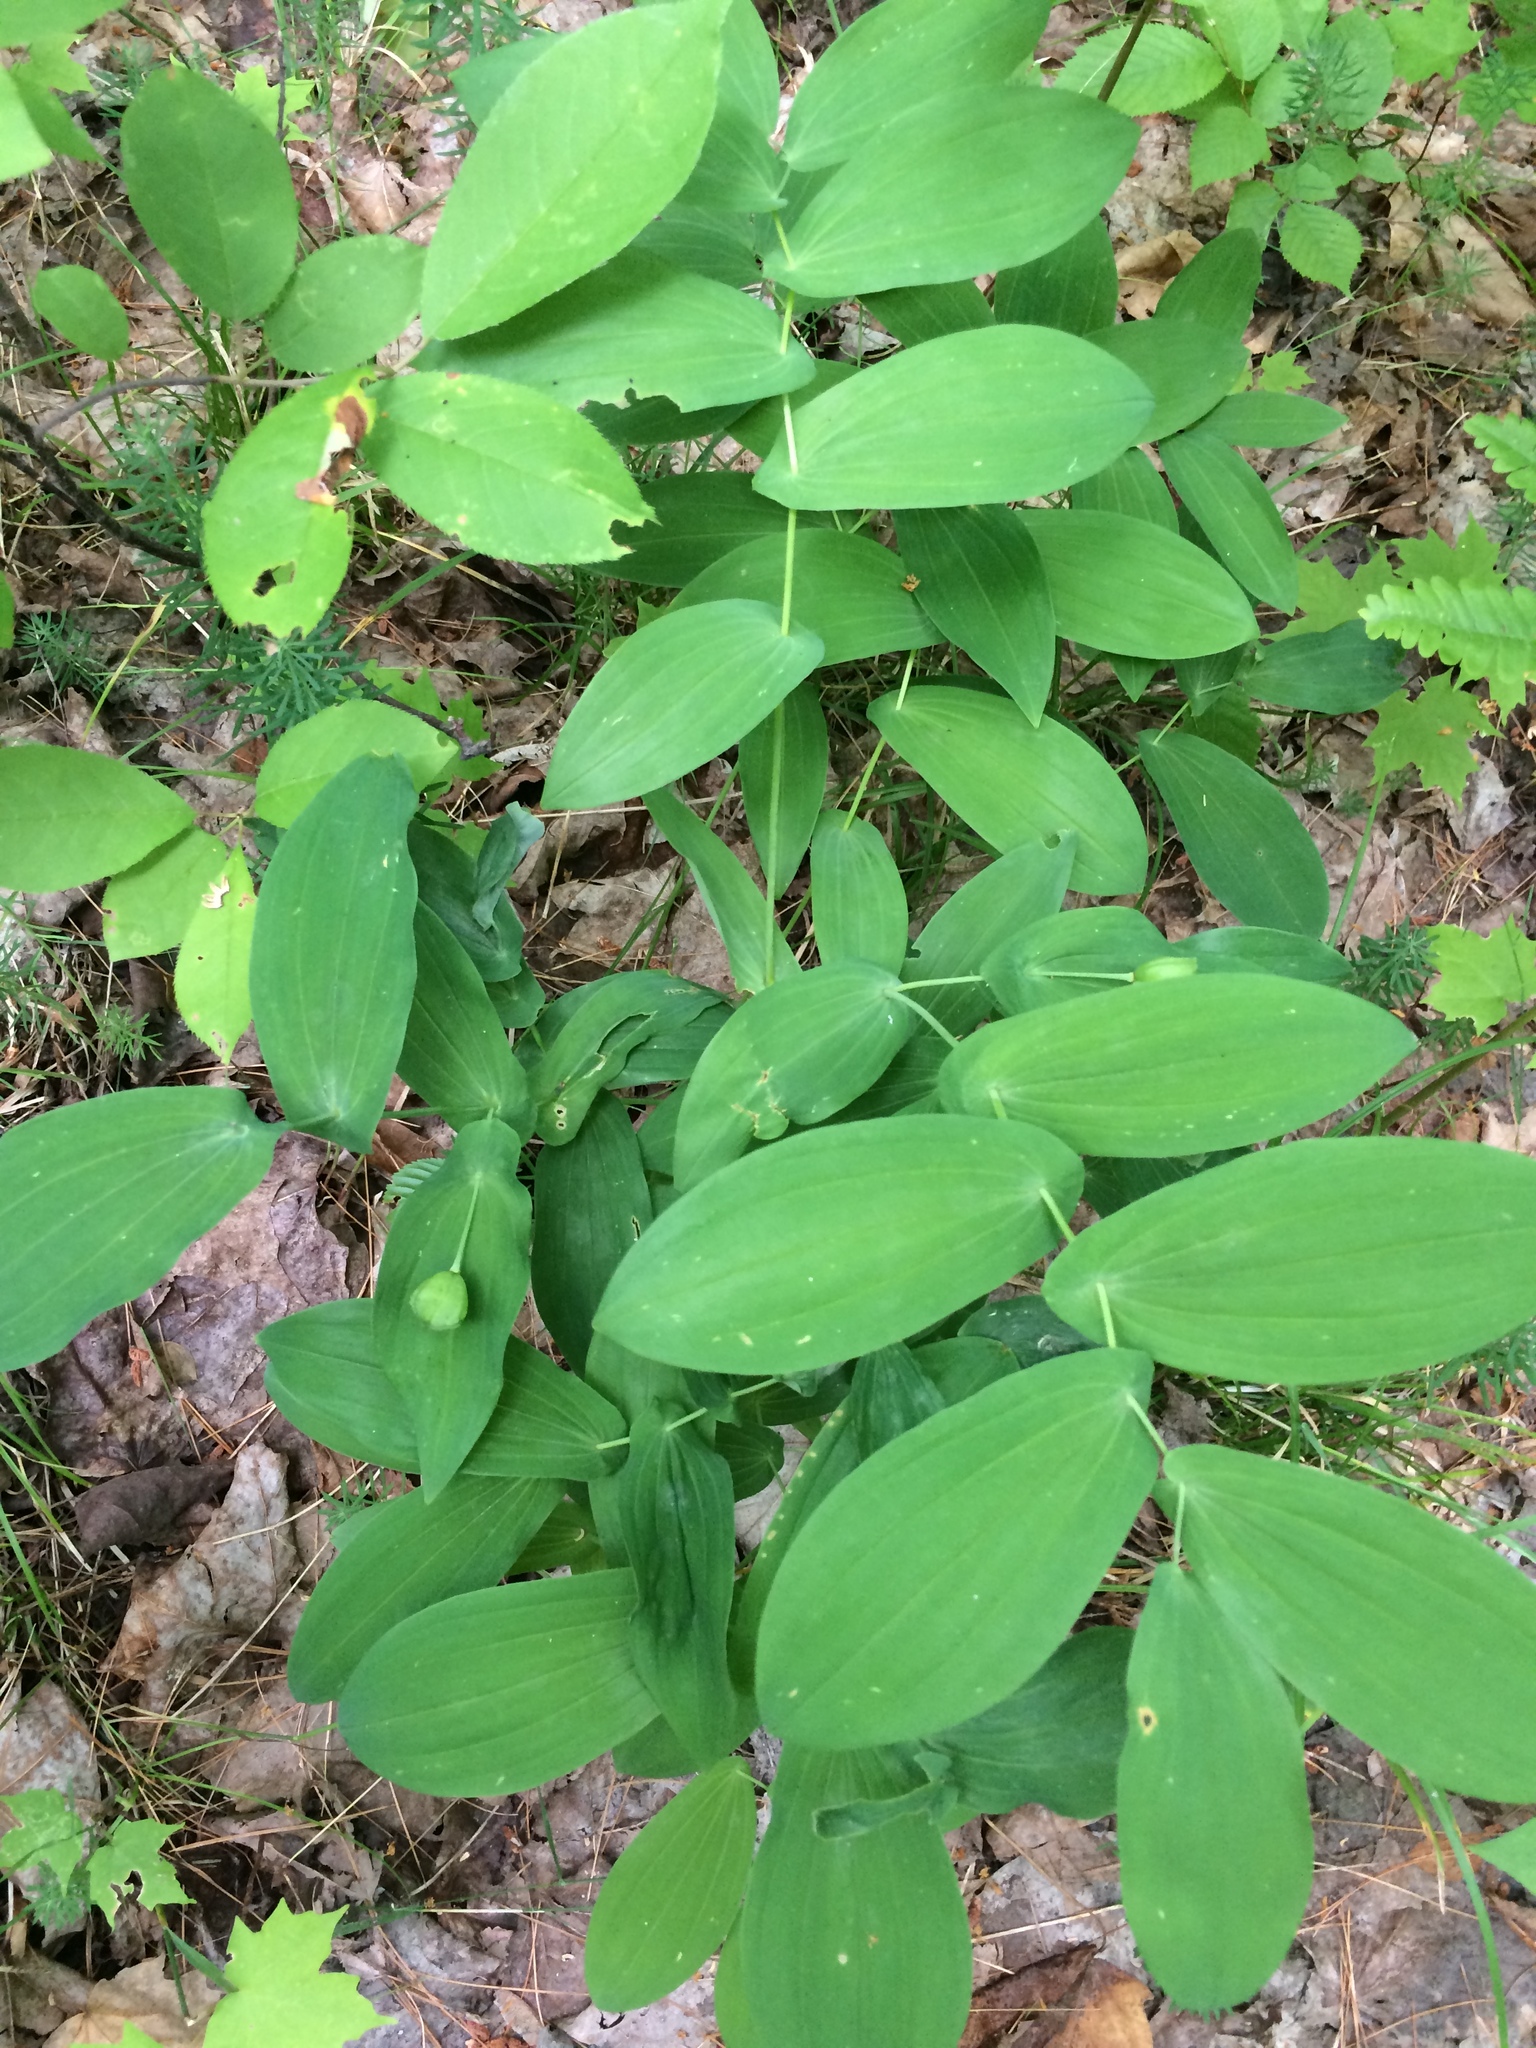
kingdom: Plantae
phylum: Tracheophyta
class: Liliopsida
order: Liliales
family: Colchicaceae
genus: Uvularia
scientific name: Uvularia grandiflora
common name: Bellwort
